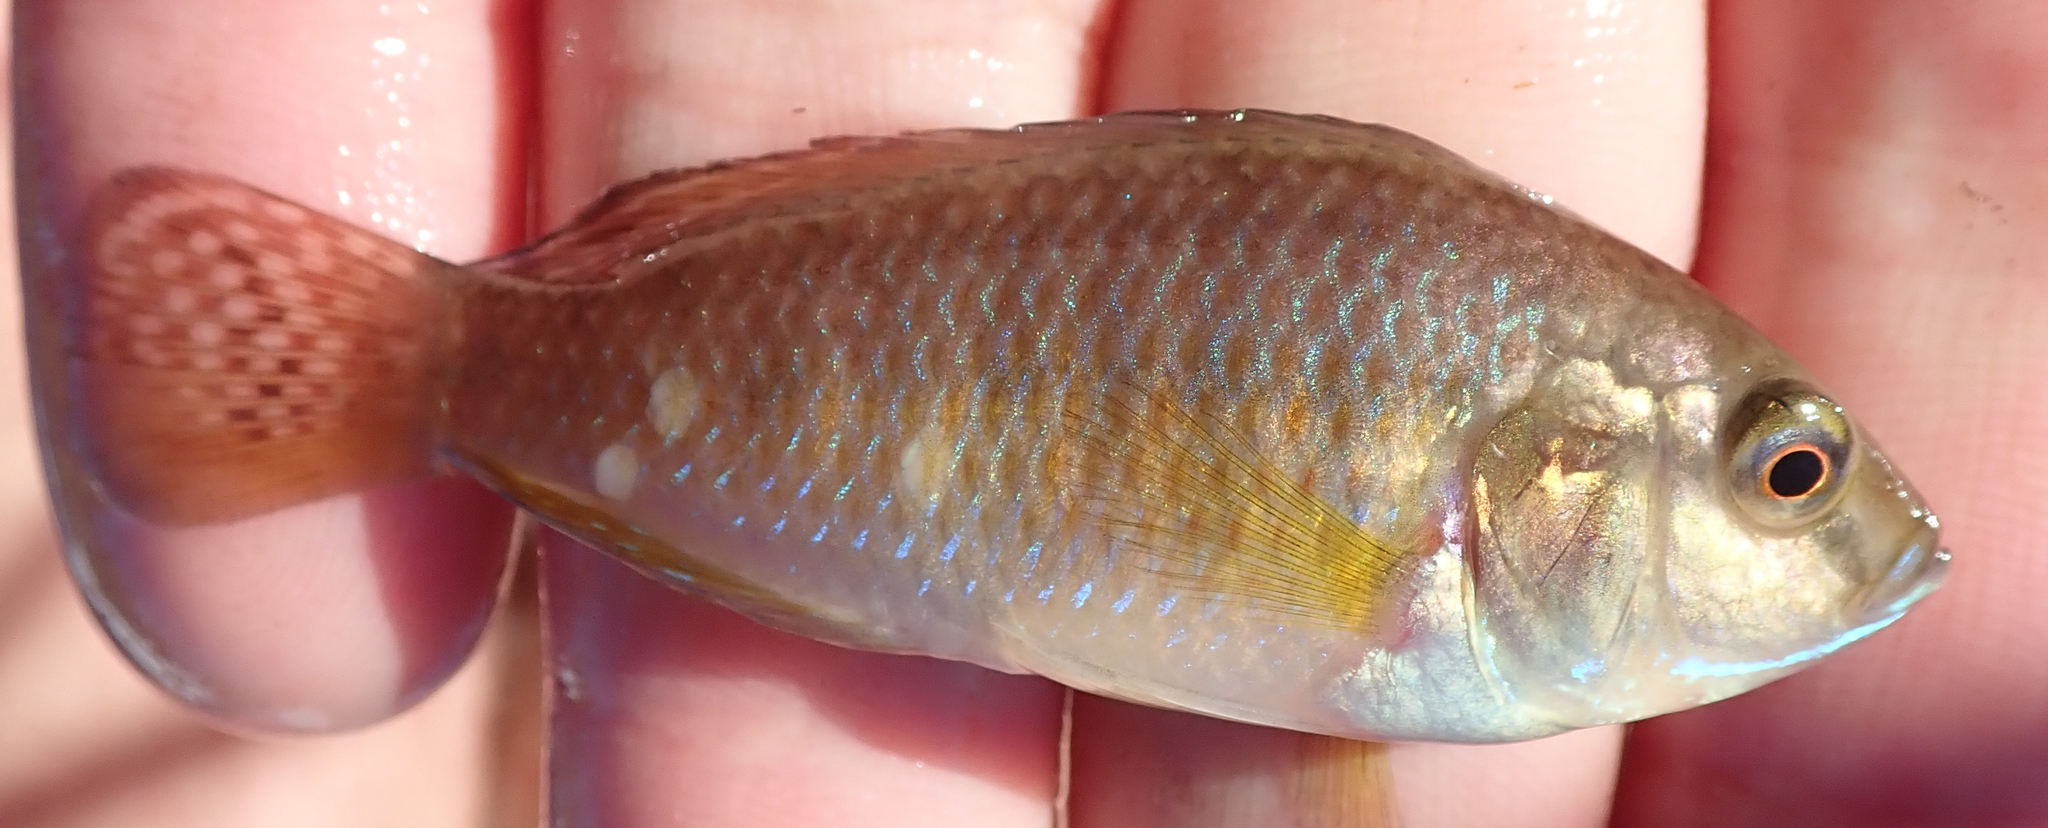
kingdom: Animalia
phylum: Chordata
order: Perciformes
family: Cichlidae
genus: Pseudocrenilabrus
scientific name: Pseudocrenilabrus philander
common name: Southern mouthbrooder
